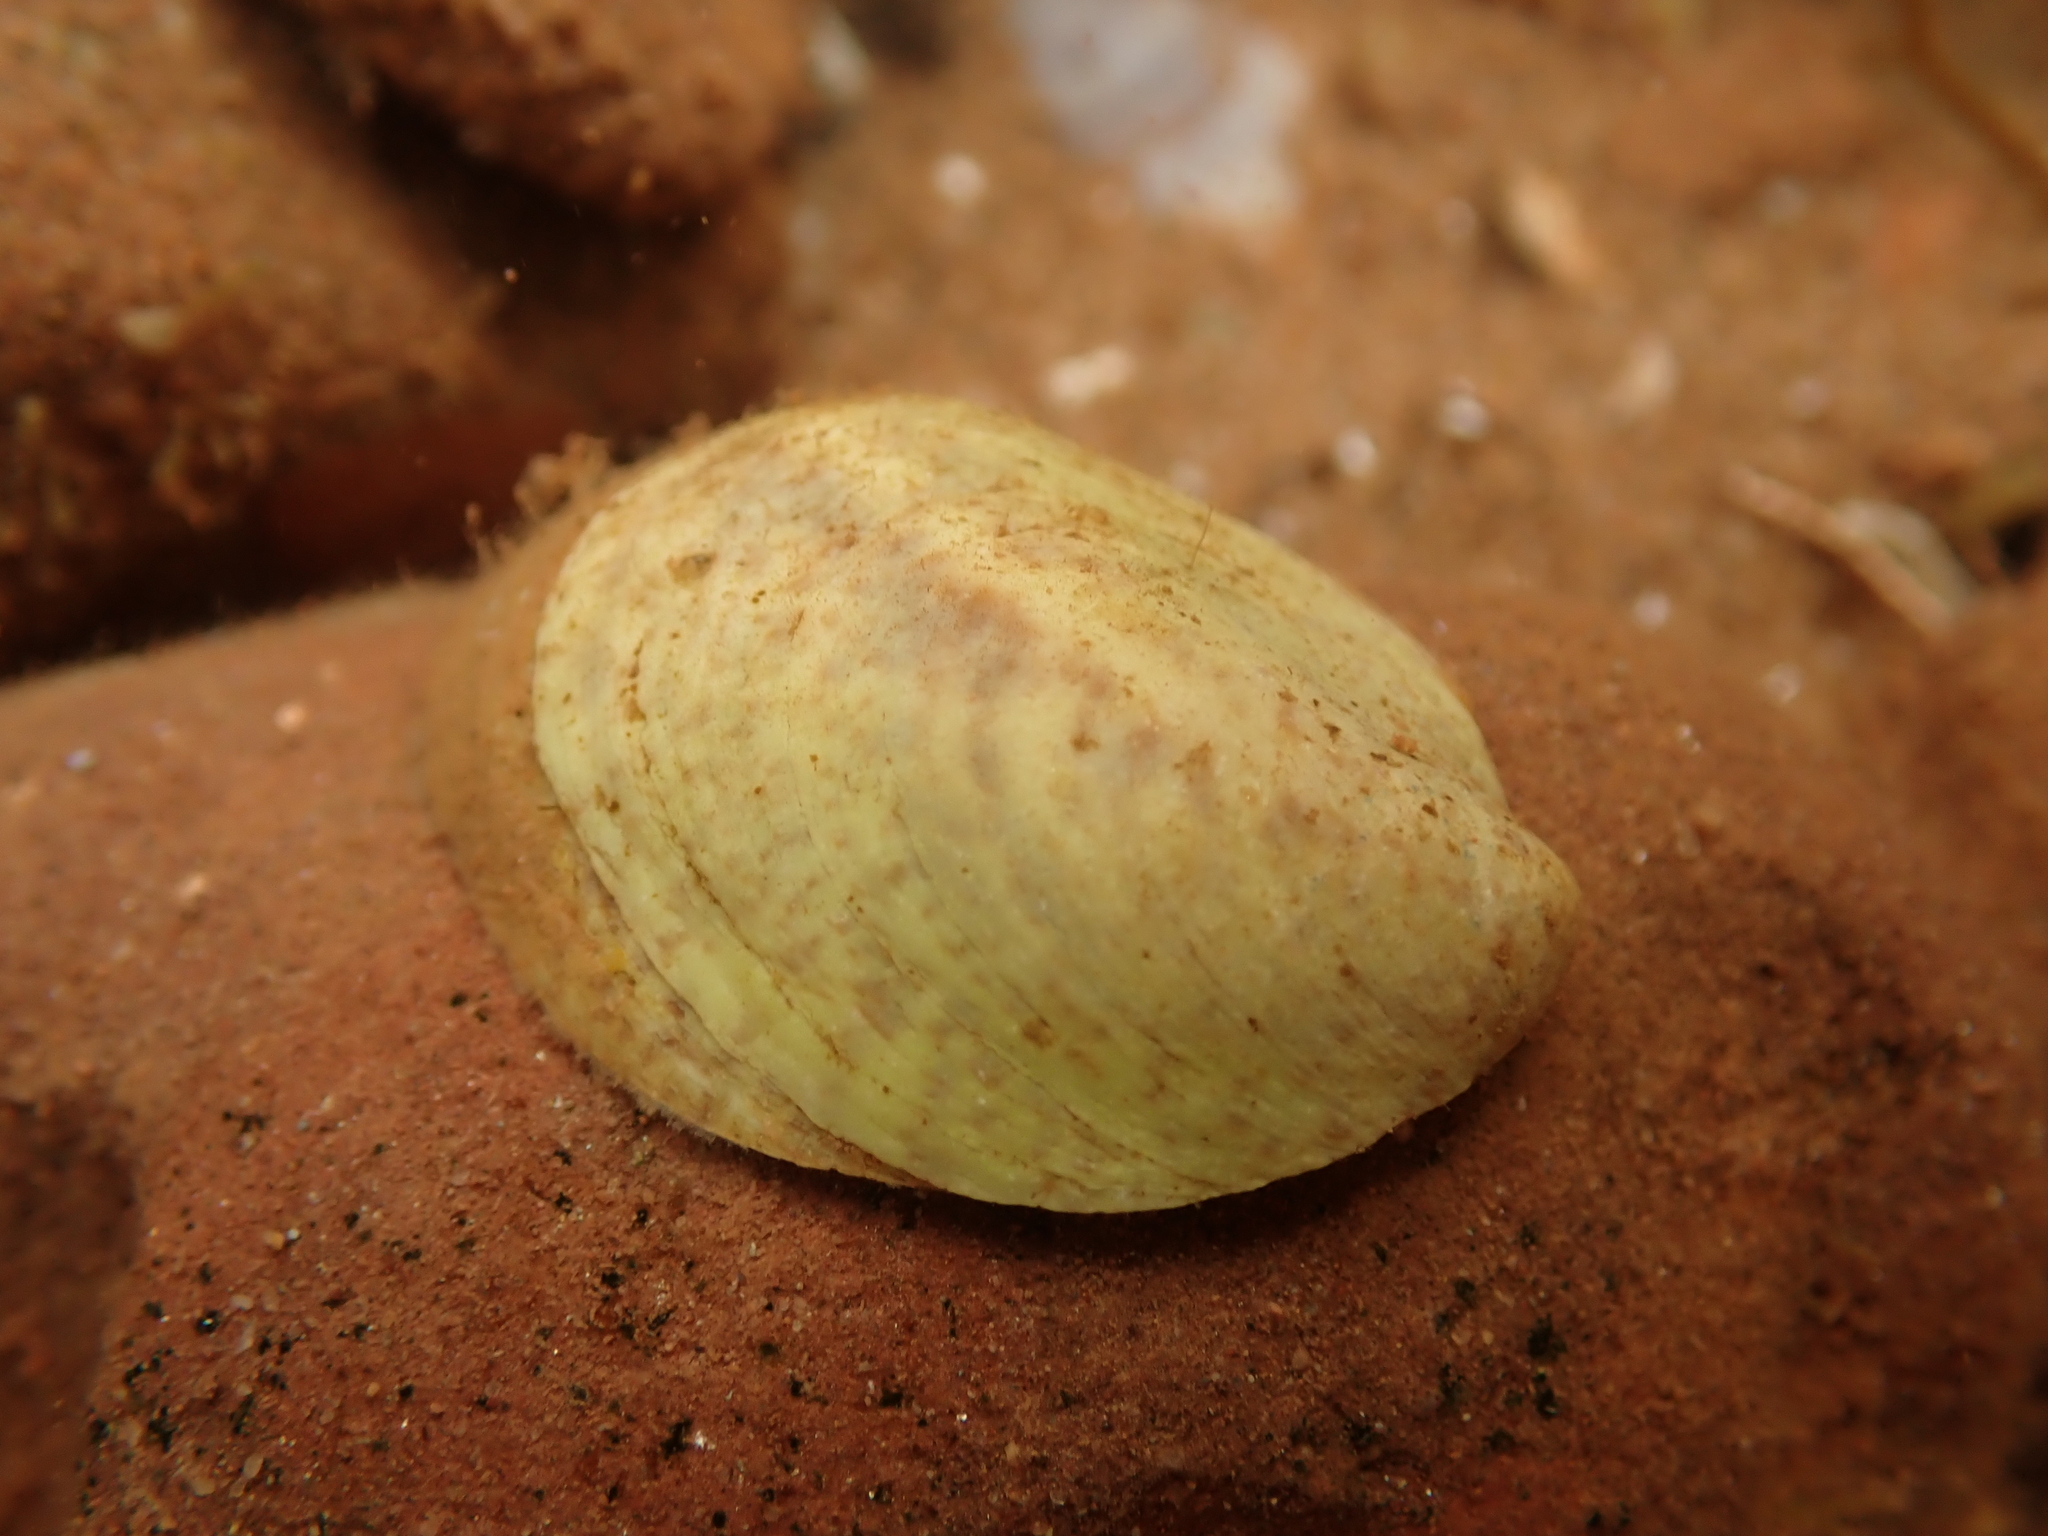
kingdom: Animalia
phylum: Mollusca
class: Gastropoda
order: Littorinimorpha
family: Calyptraeidae
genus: Crepidula
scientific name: Crepidula fornicata
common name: Slipper limpet
